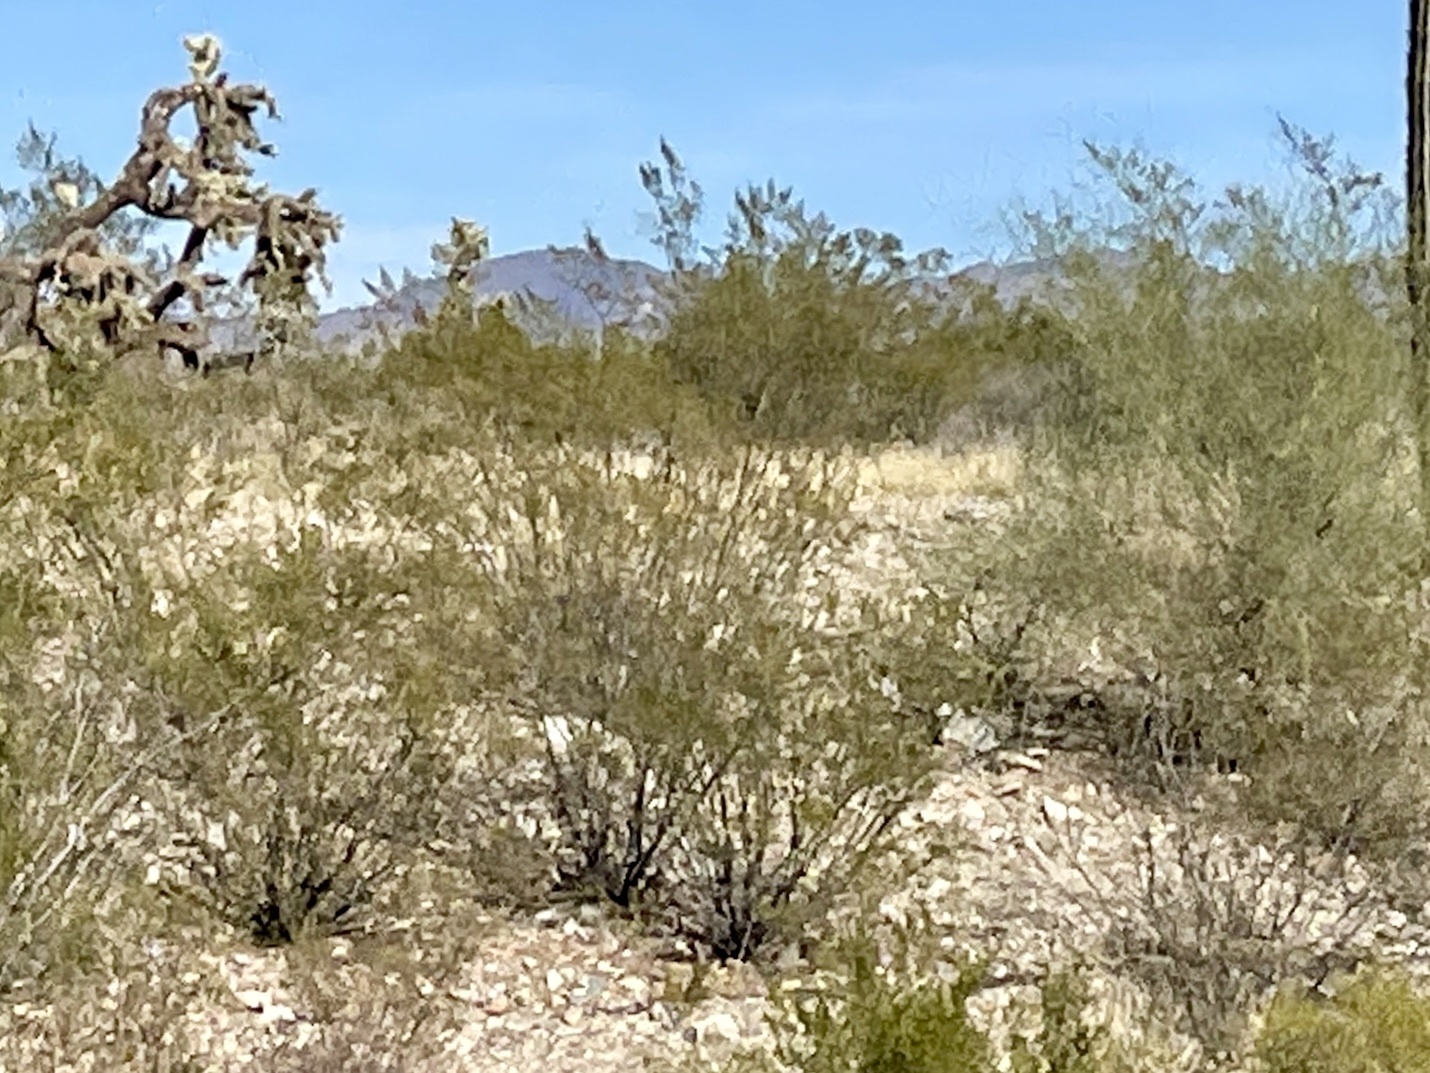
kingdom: Plantae
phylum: Tracheophyta
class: Magnoliopsida
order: Zygophyllales
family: Zygophyllaceae
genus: Larrea
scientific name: Larrea tridentata
